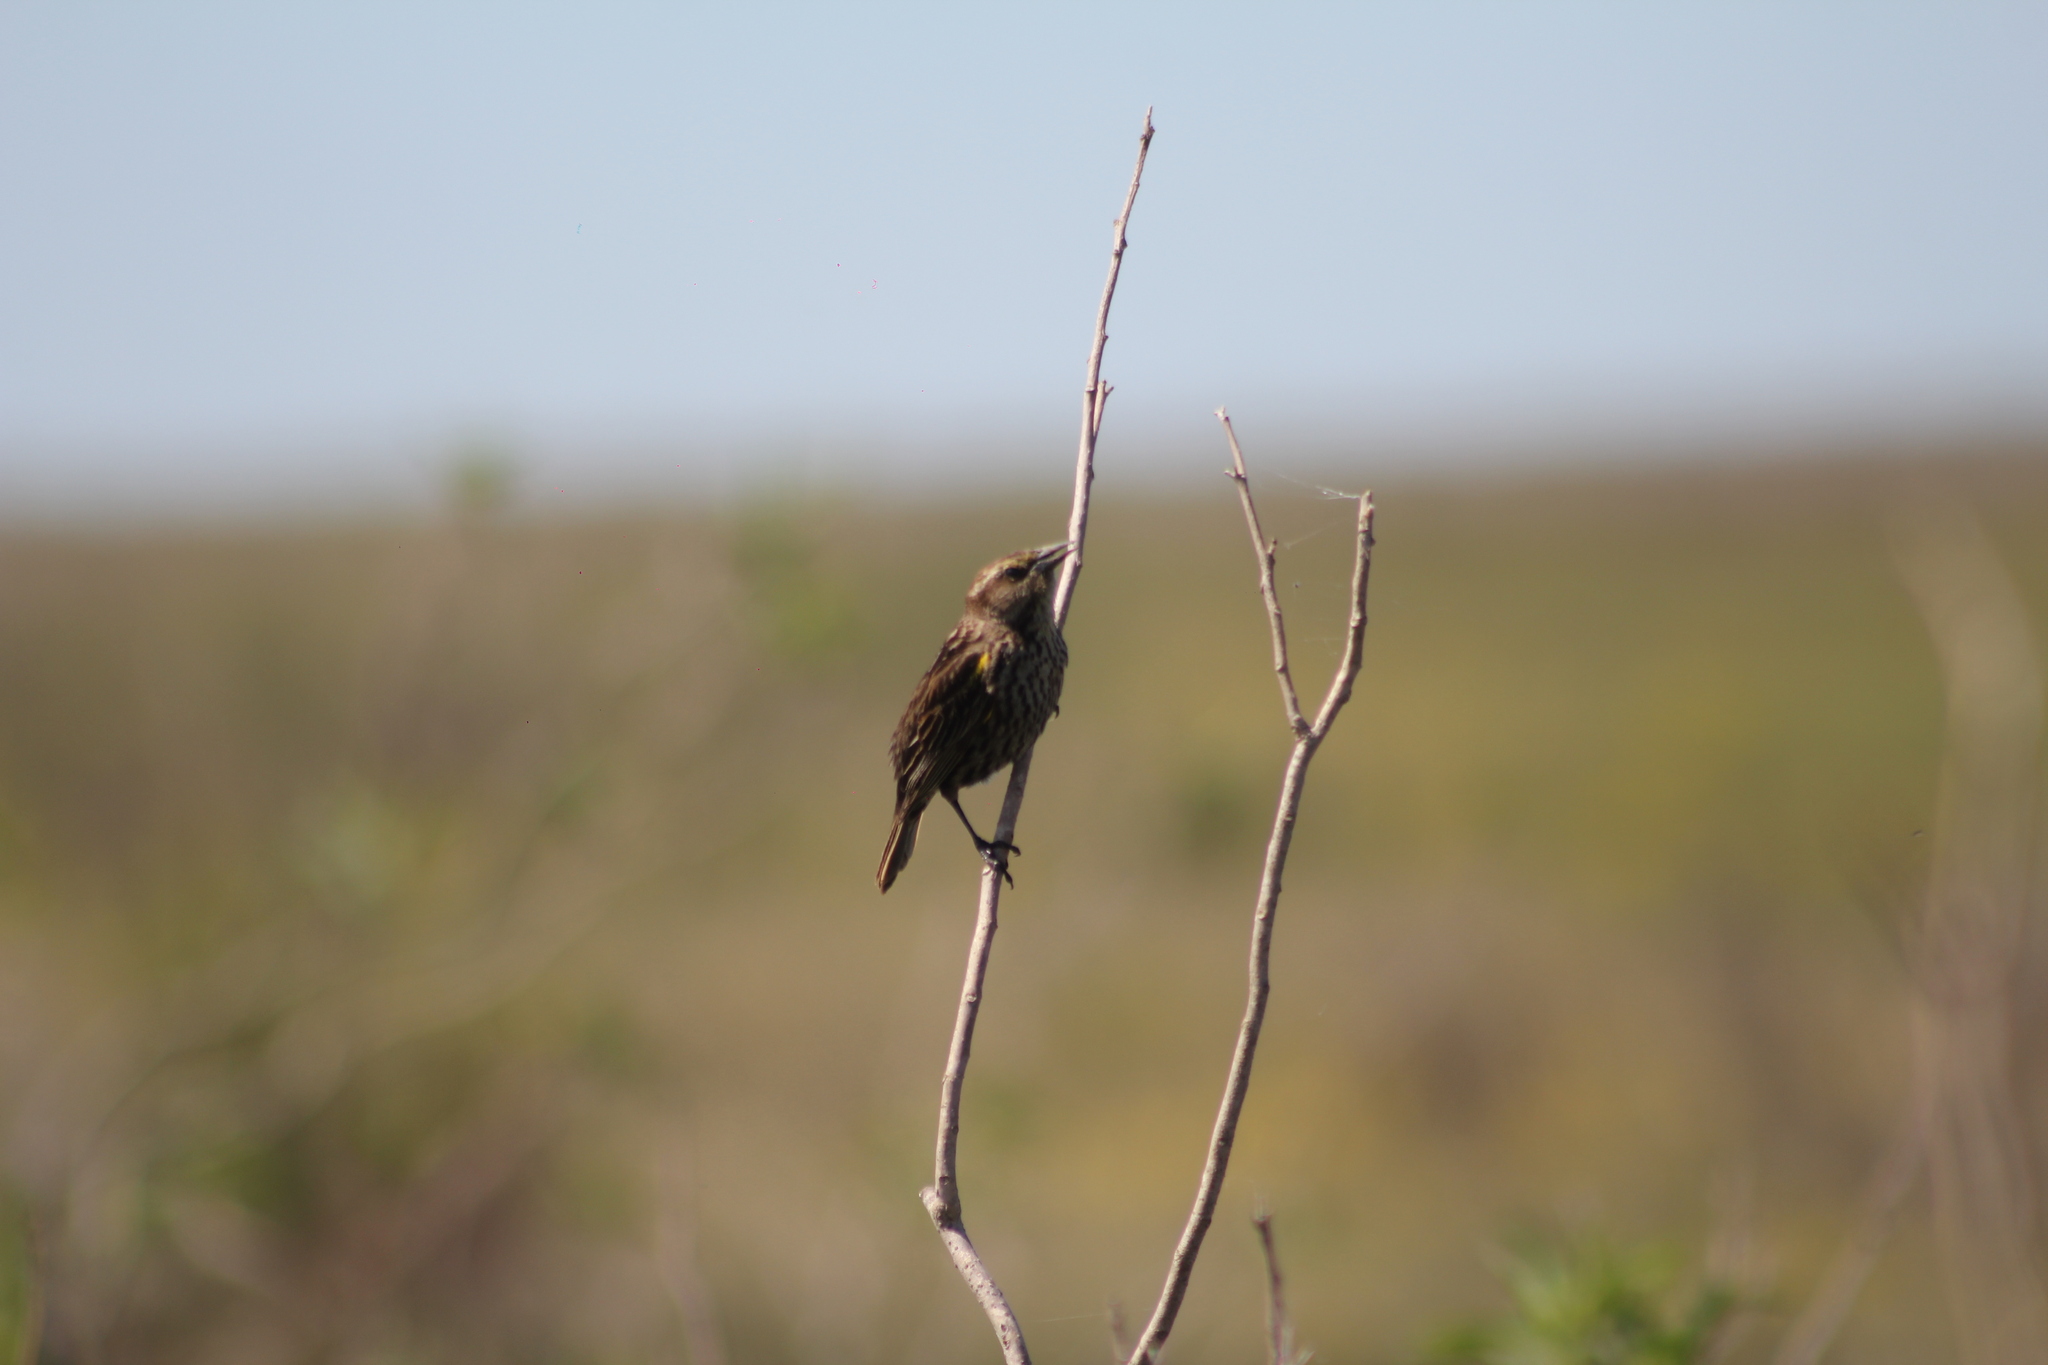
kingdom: Animalia
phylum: Chordata
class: Aves
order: Passeriformes
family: Icteridae
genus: Agelasticus
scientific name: Agelasticus thilius
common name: Yellow-winged blackbird
